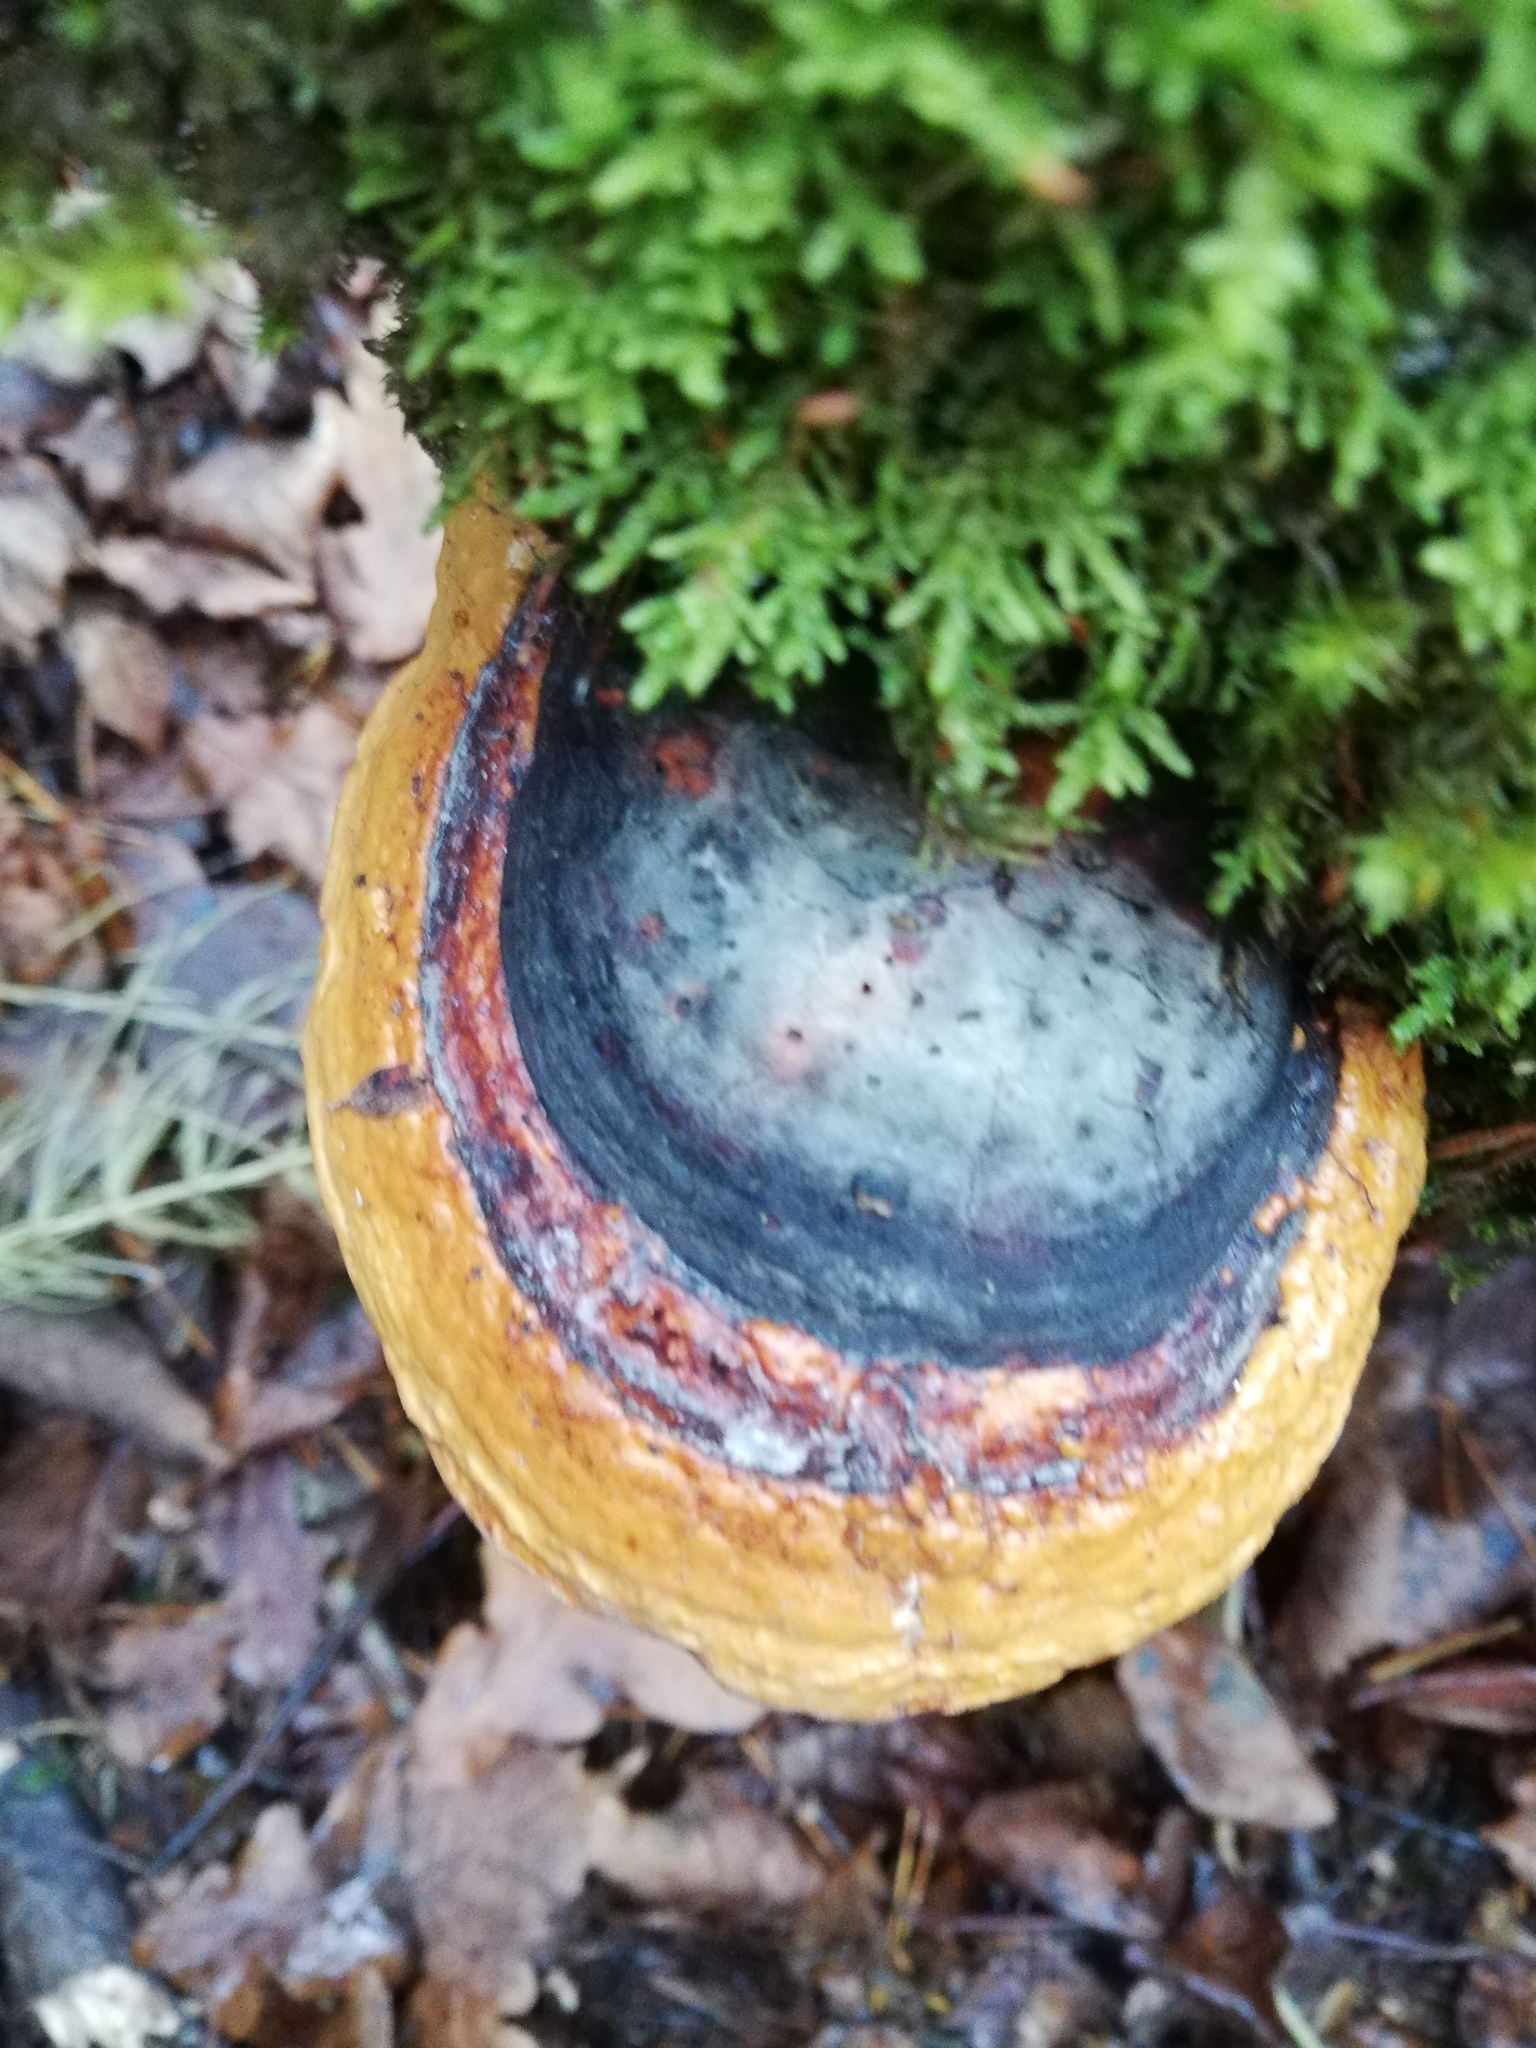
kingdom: Fungi
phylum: Basidiomycota
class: Agaricomycetes
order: Polyporales
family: Fomitopsidaceae
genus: Fomitopsis
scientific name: Fomitopsis pinicola
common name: Red-belted bracket
